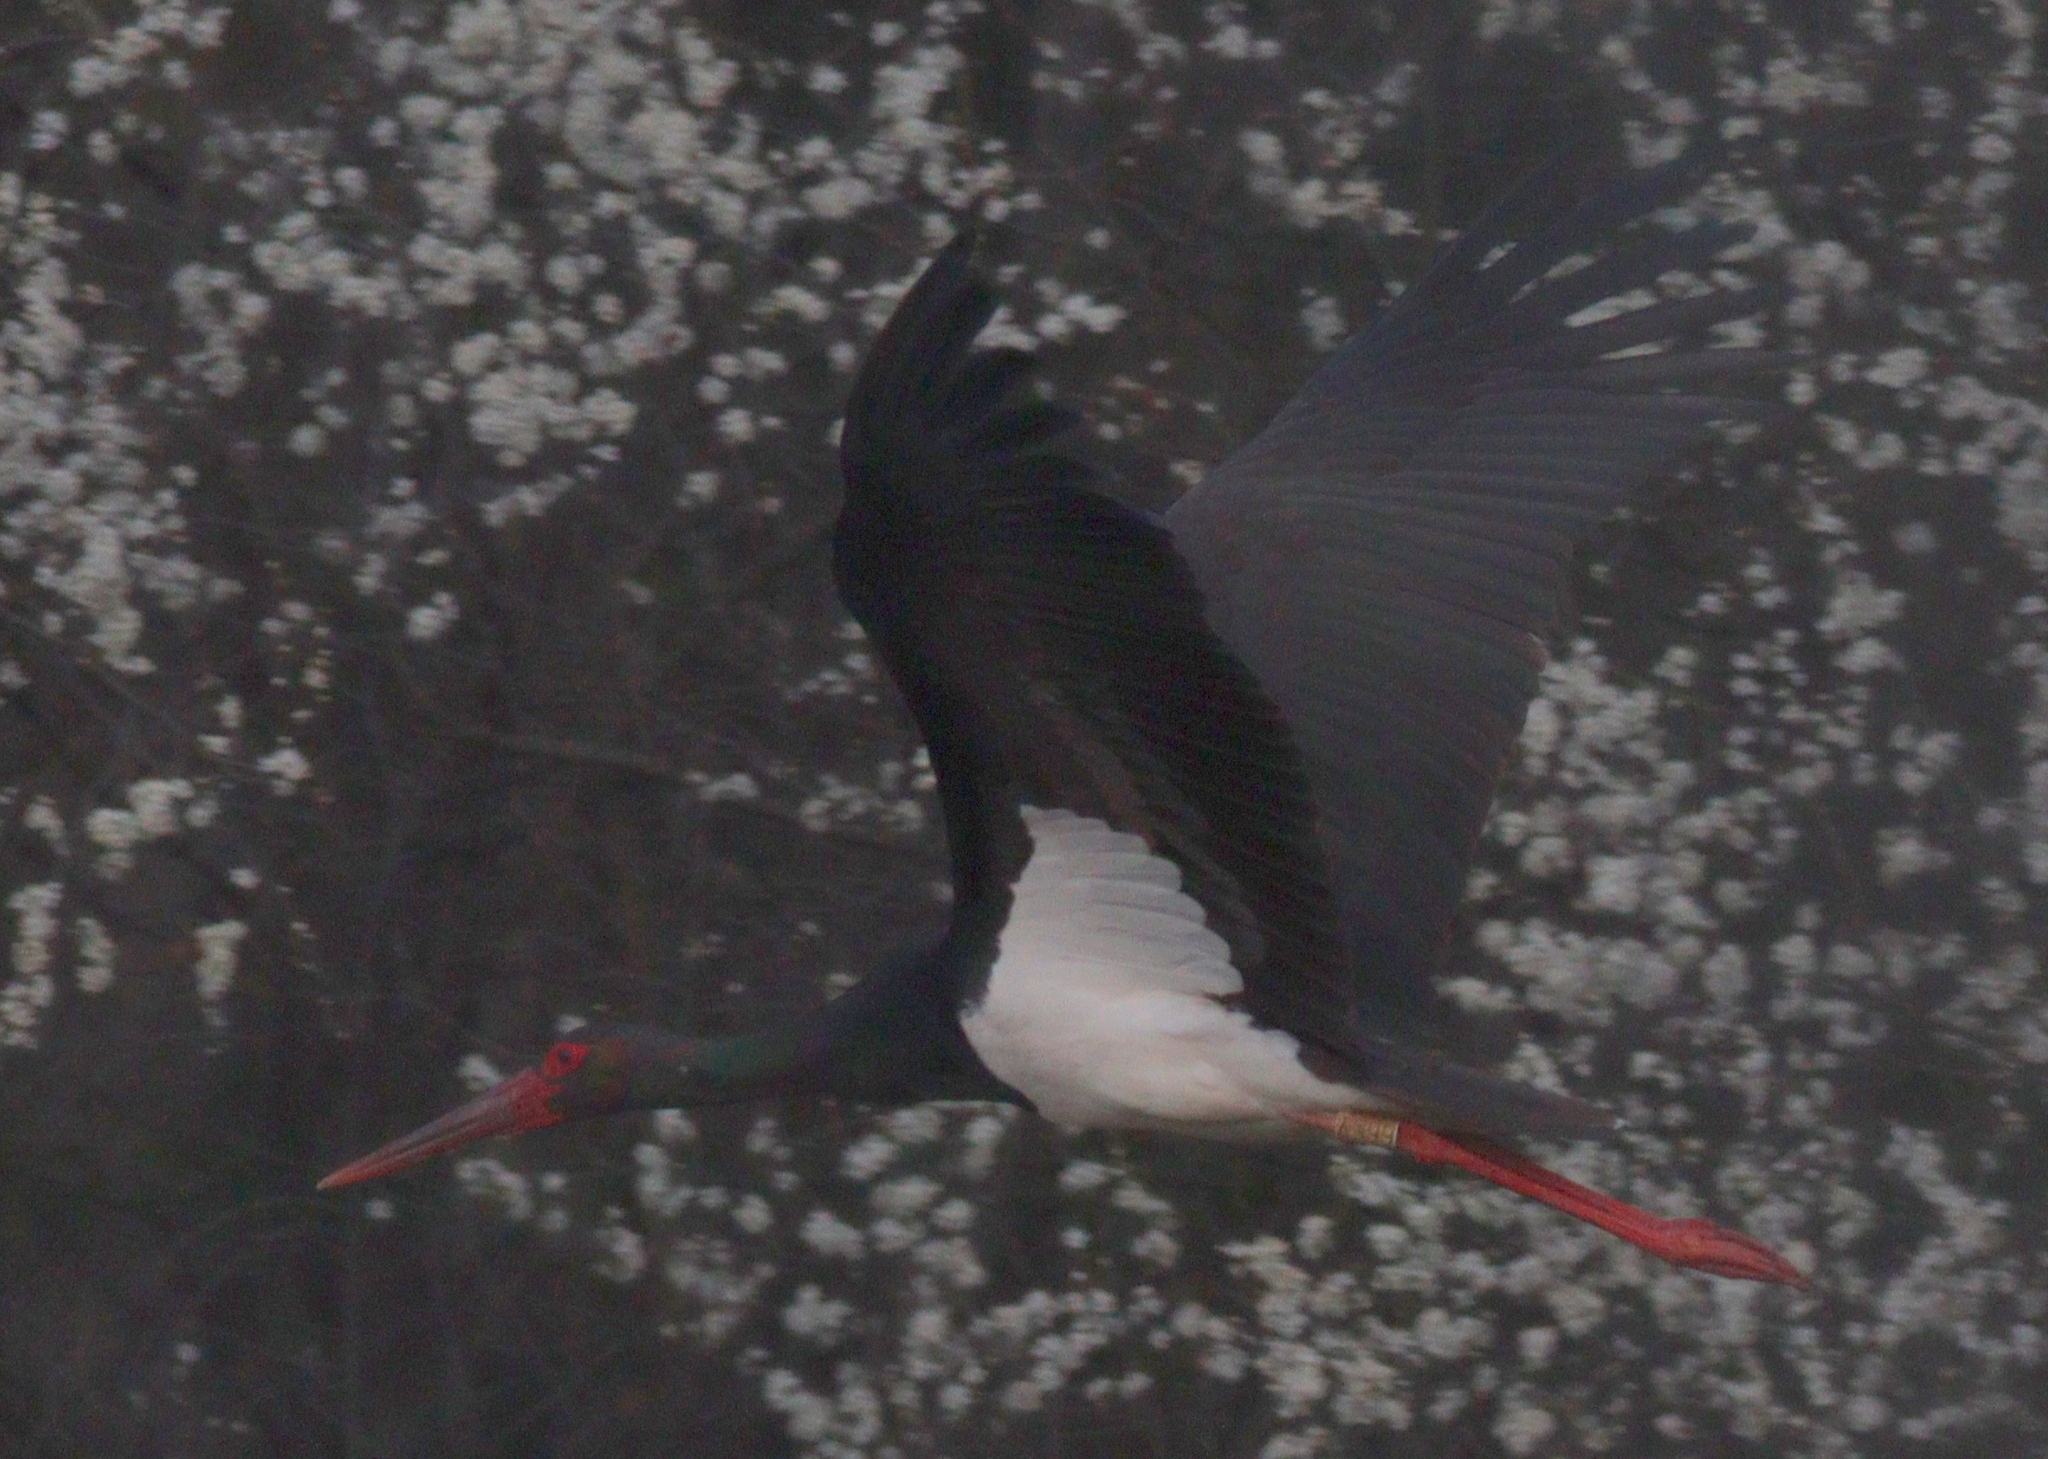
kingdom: Animalia
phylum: Chordata
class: Aves
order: Ciconiiformes
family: Ciconiidae
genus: Ciconia
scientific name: Ciconia nigra
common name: Black stork
